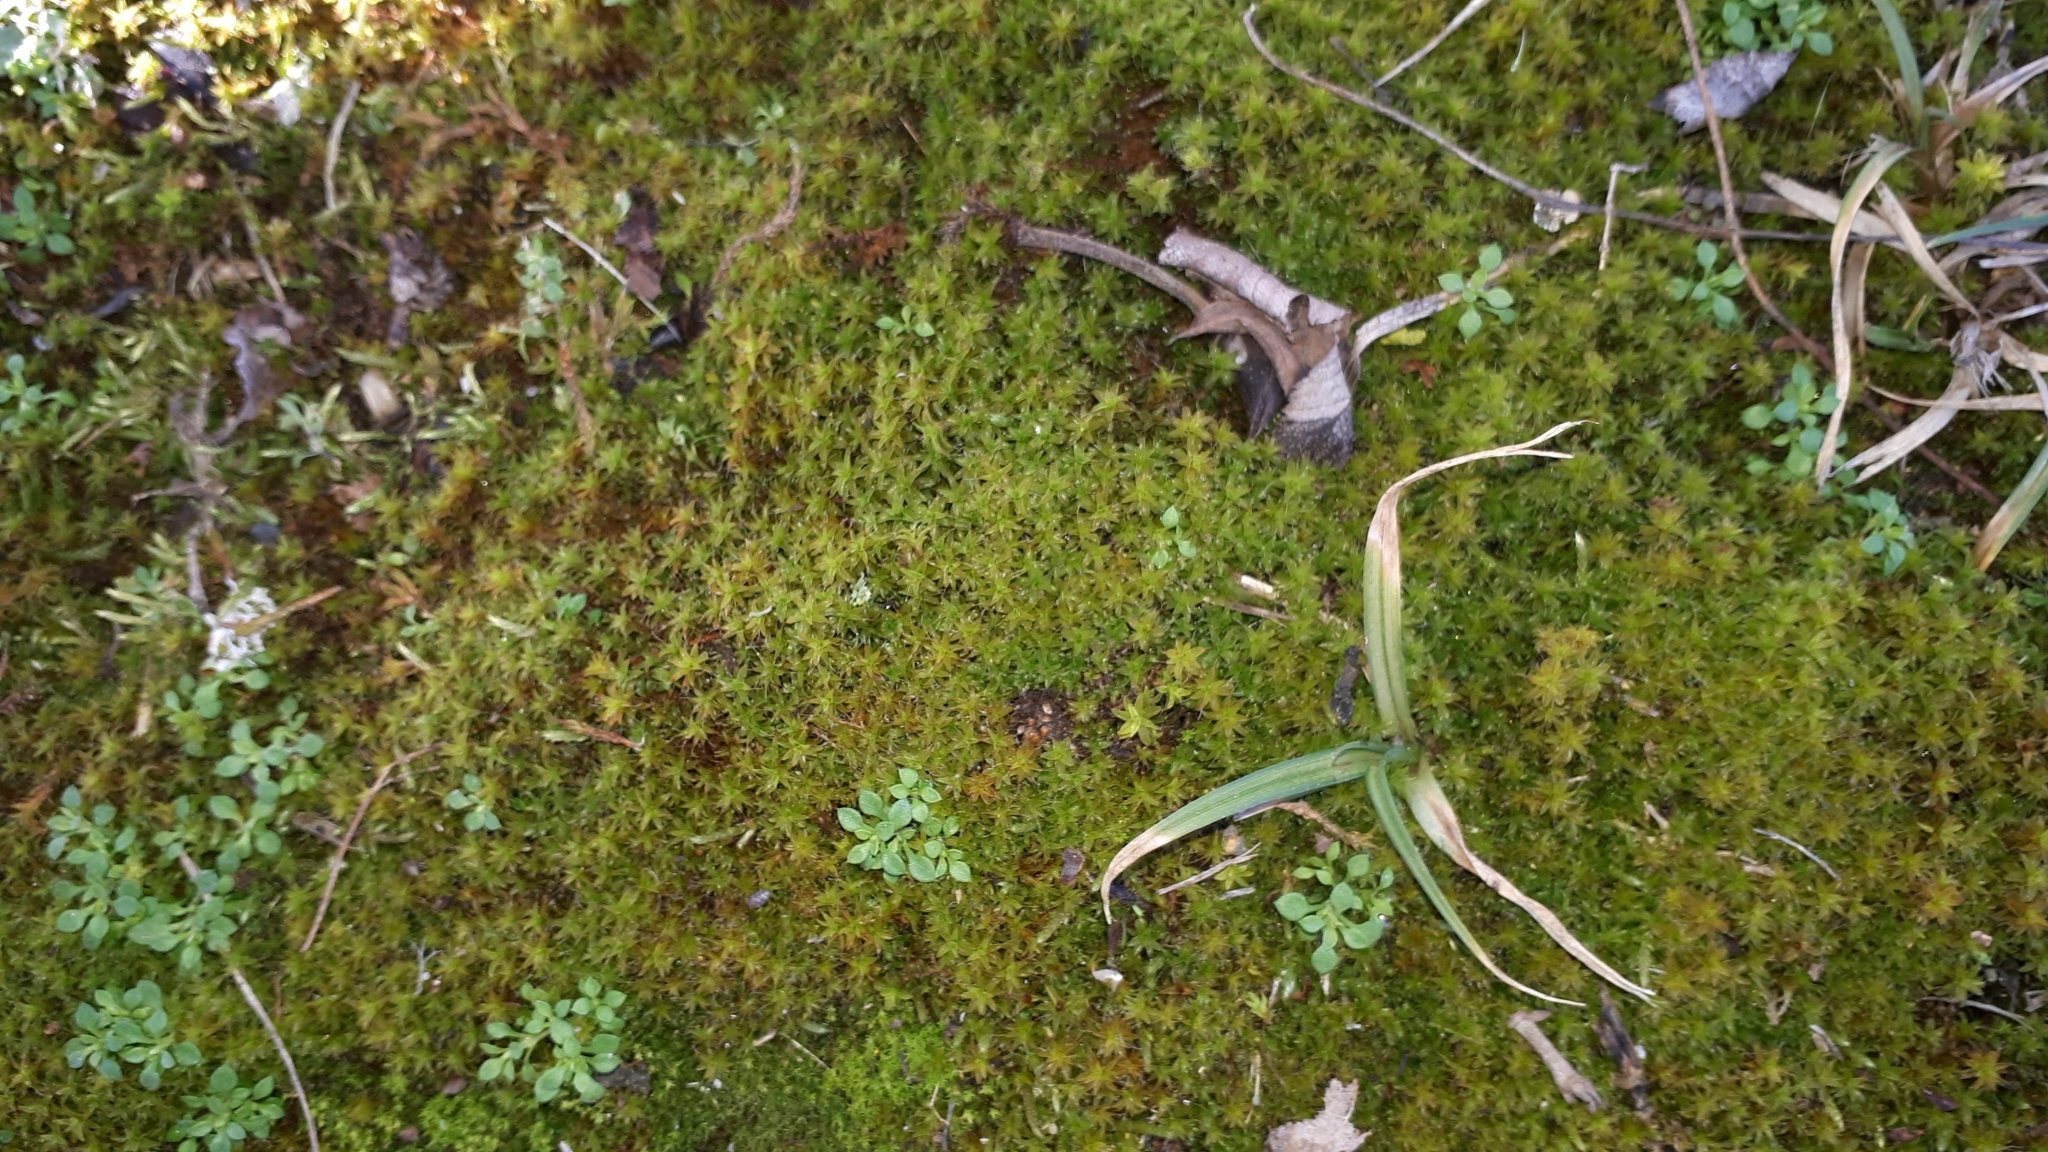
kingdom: Plantae
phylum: Bryophyta
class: Bryopsida
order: Pottiales
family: Pottiaceae
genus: Syntrichia
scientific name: Syntrichia ruralis
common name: Sidewalk screw moss
